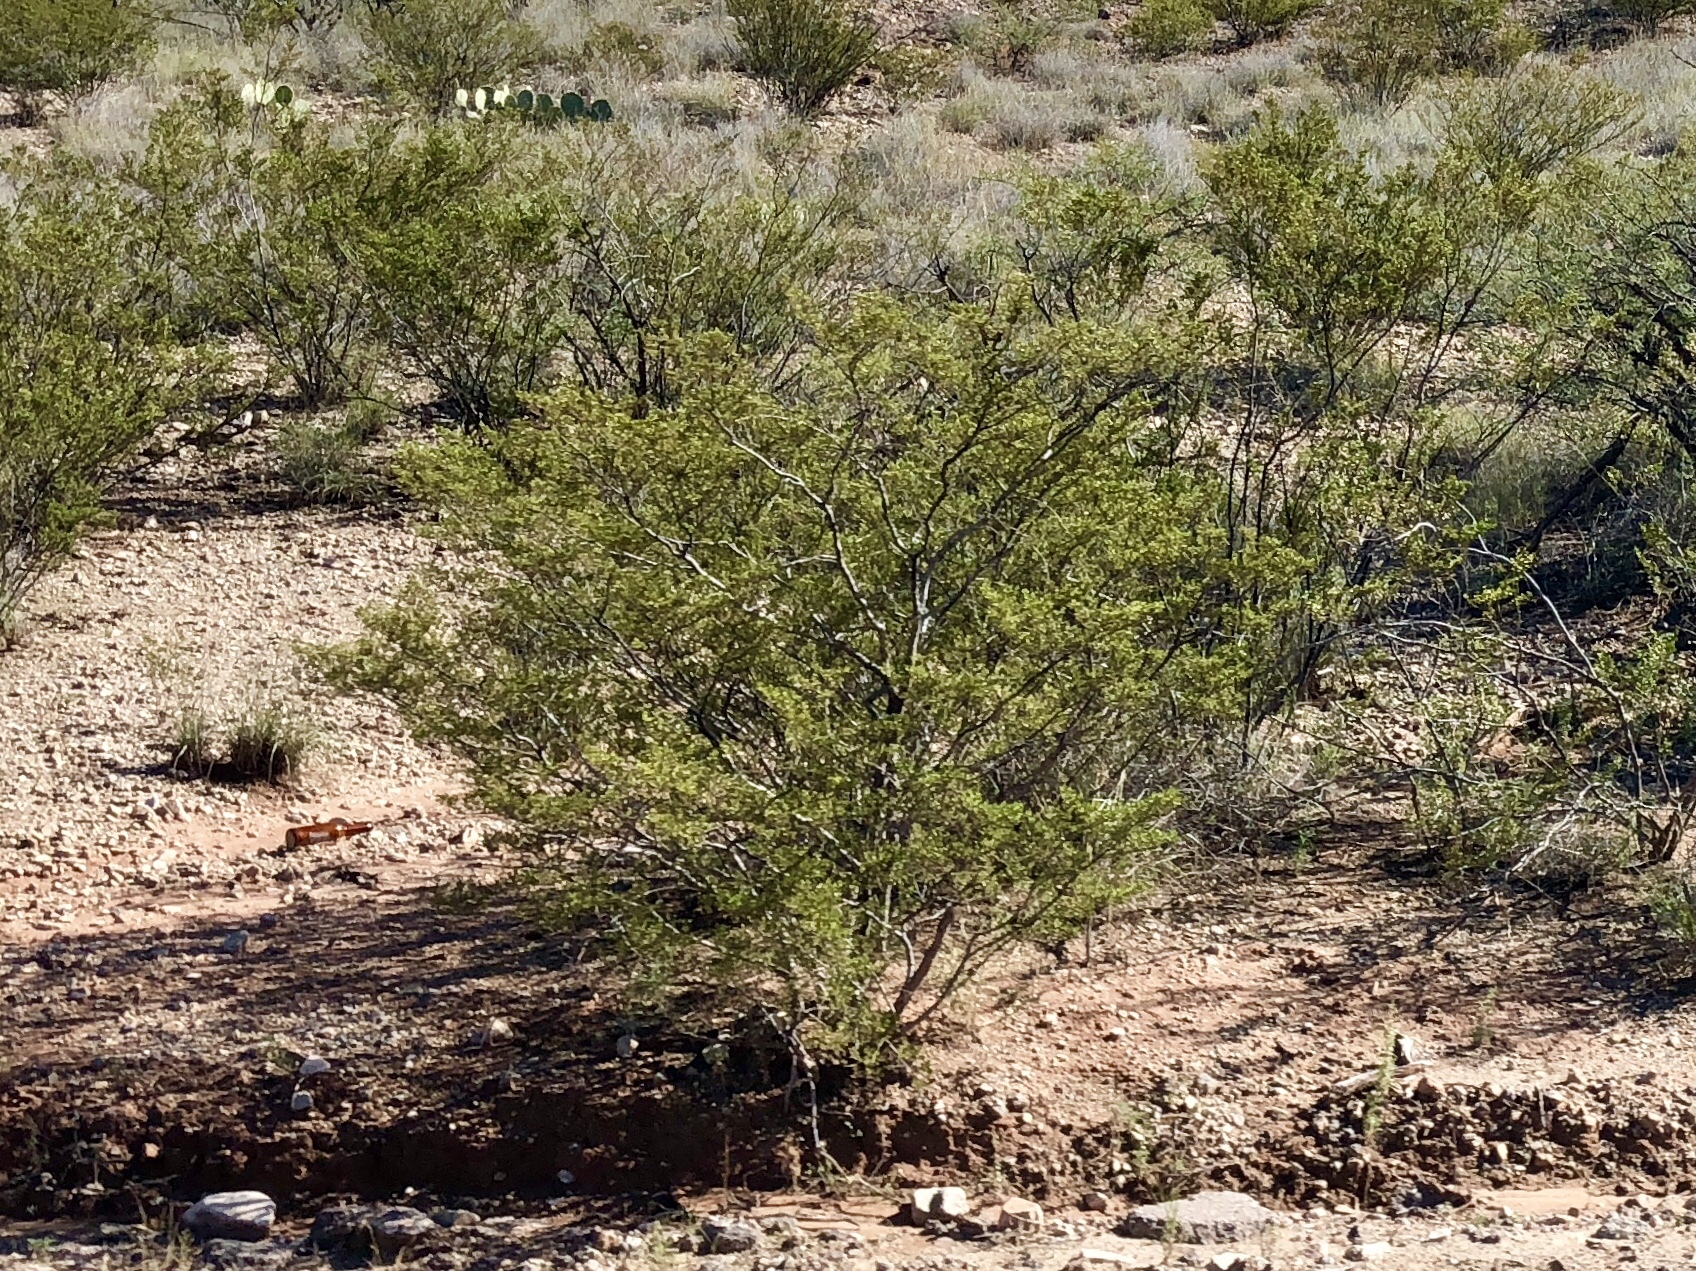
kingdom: Plantae
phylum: Tracheophyta
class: Magnoliopsida
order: Zygophyllales
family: Zygophyllaceae
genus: Larrea
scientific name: Larrea tridentata
